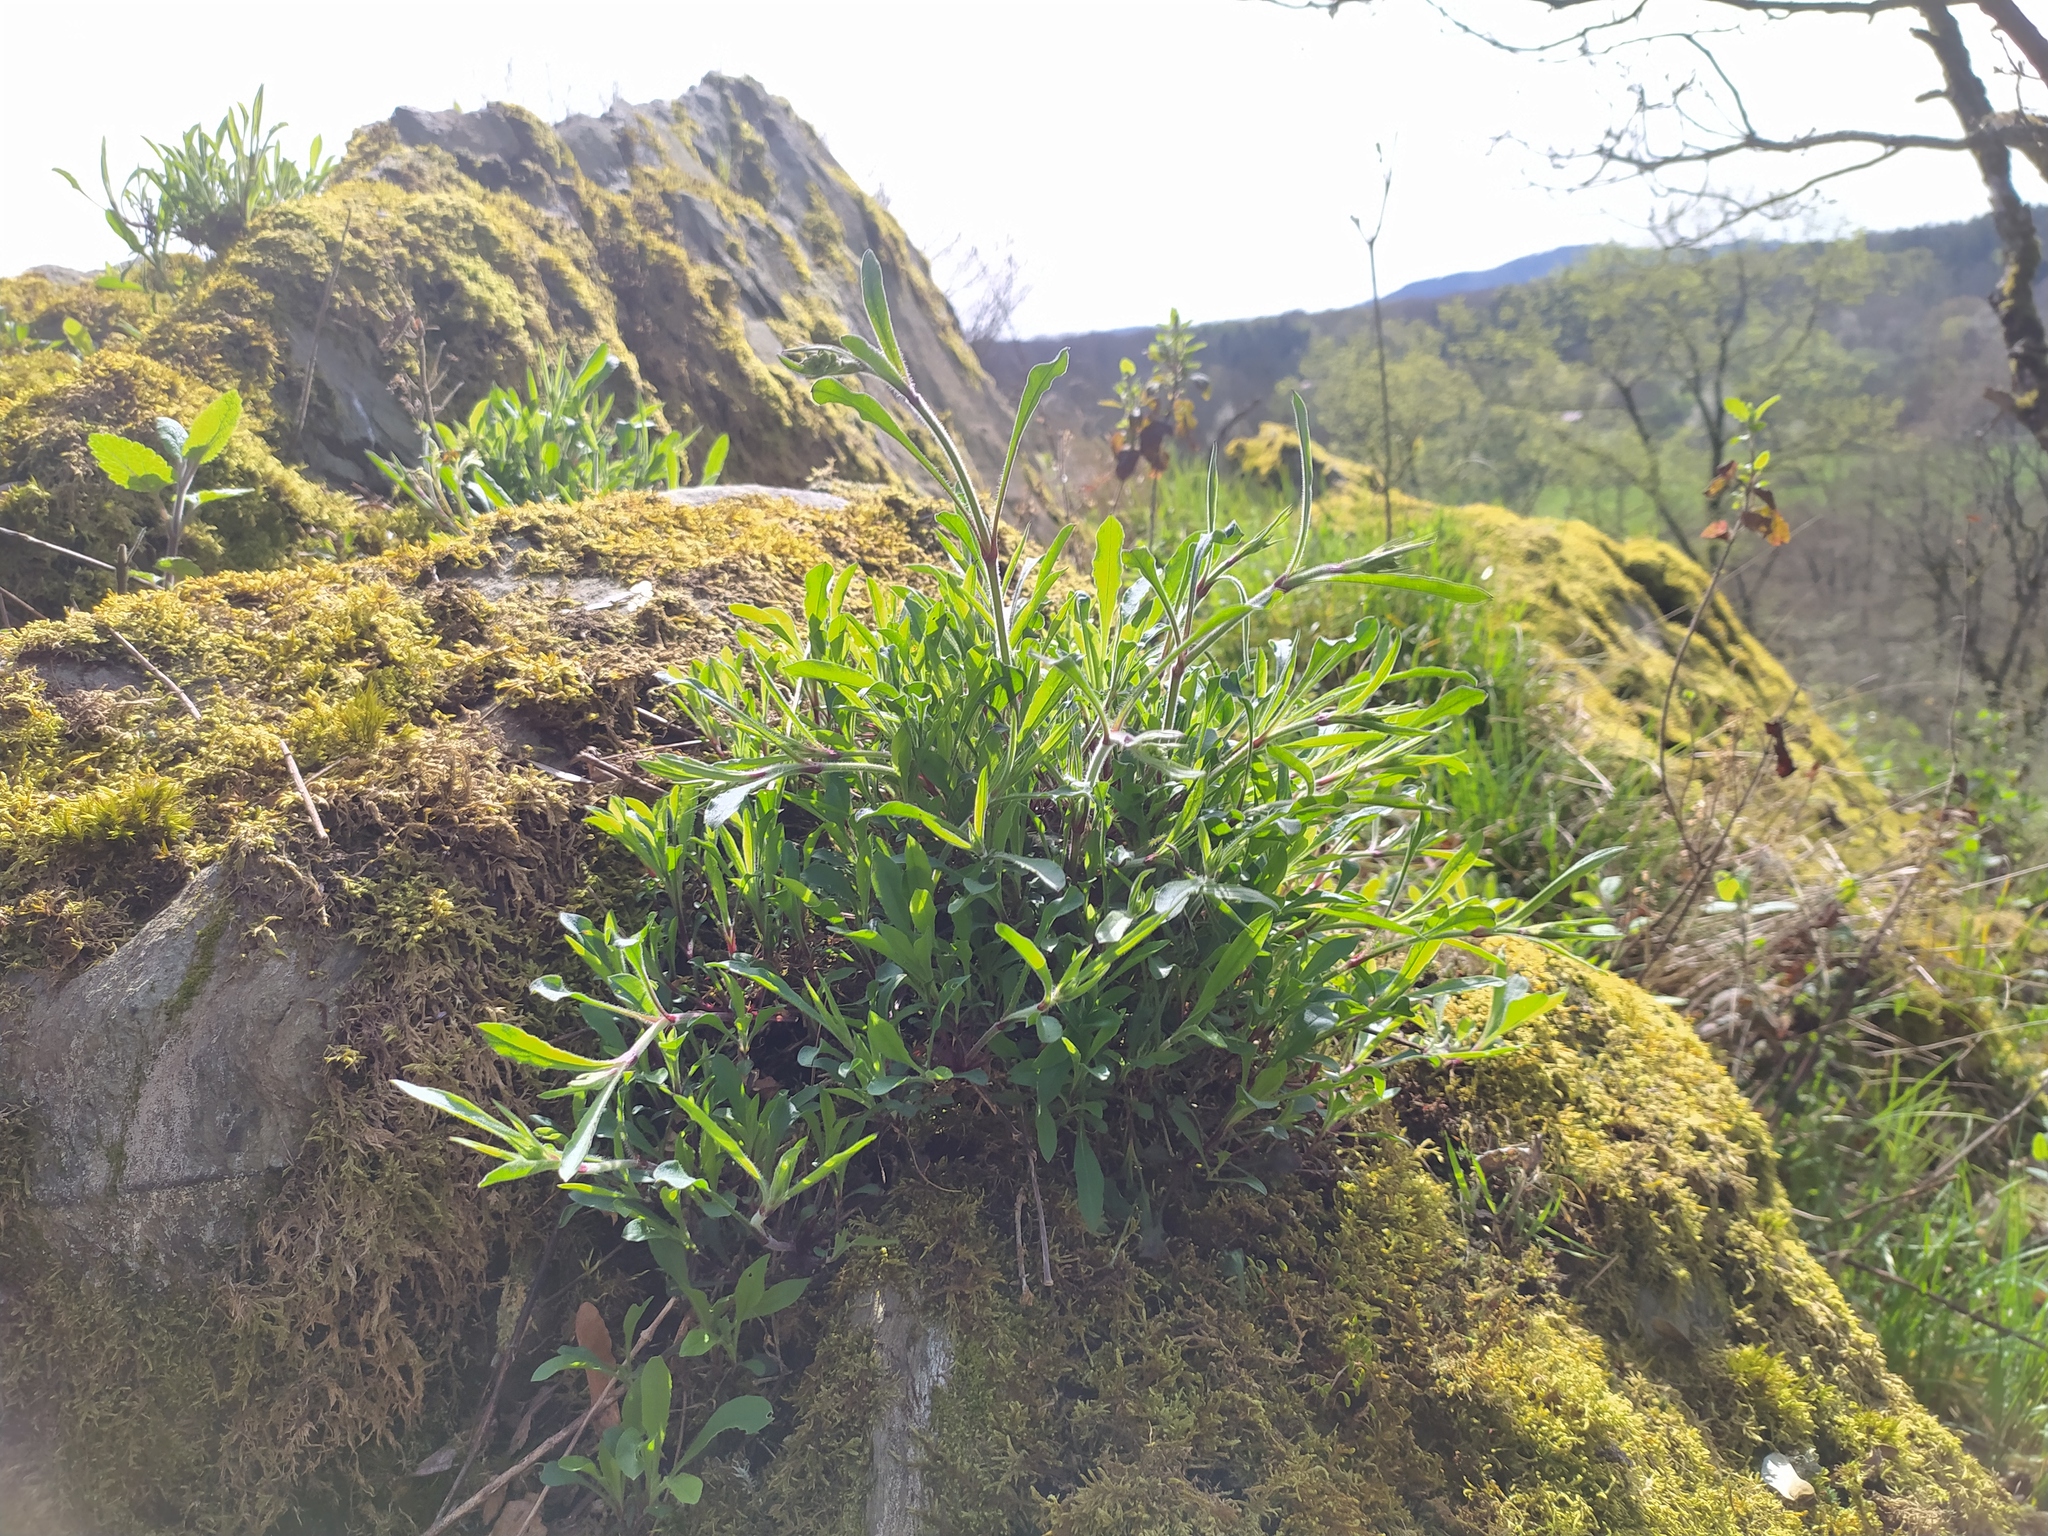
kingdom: Plantae
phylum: Tracheophyta
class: Magnoliopsida
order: Caryophyllales
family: Caryophyllaceae
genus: Silene
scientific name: Silene nutans
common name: Nottingham catchfly
